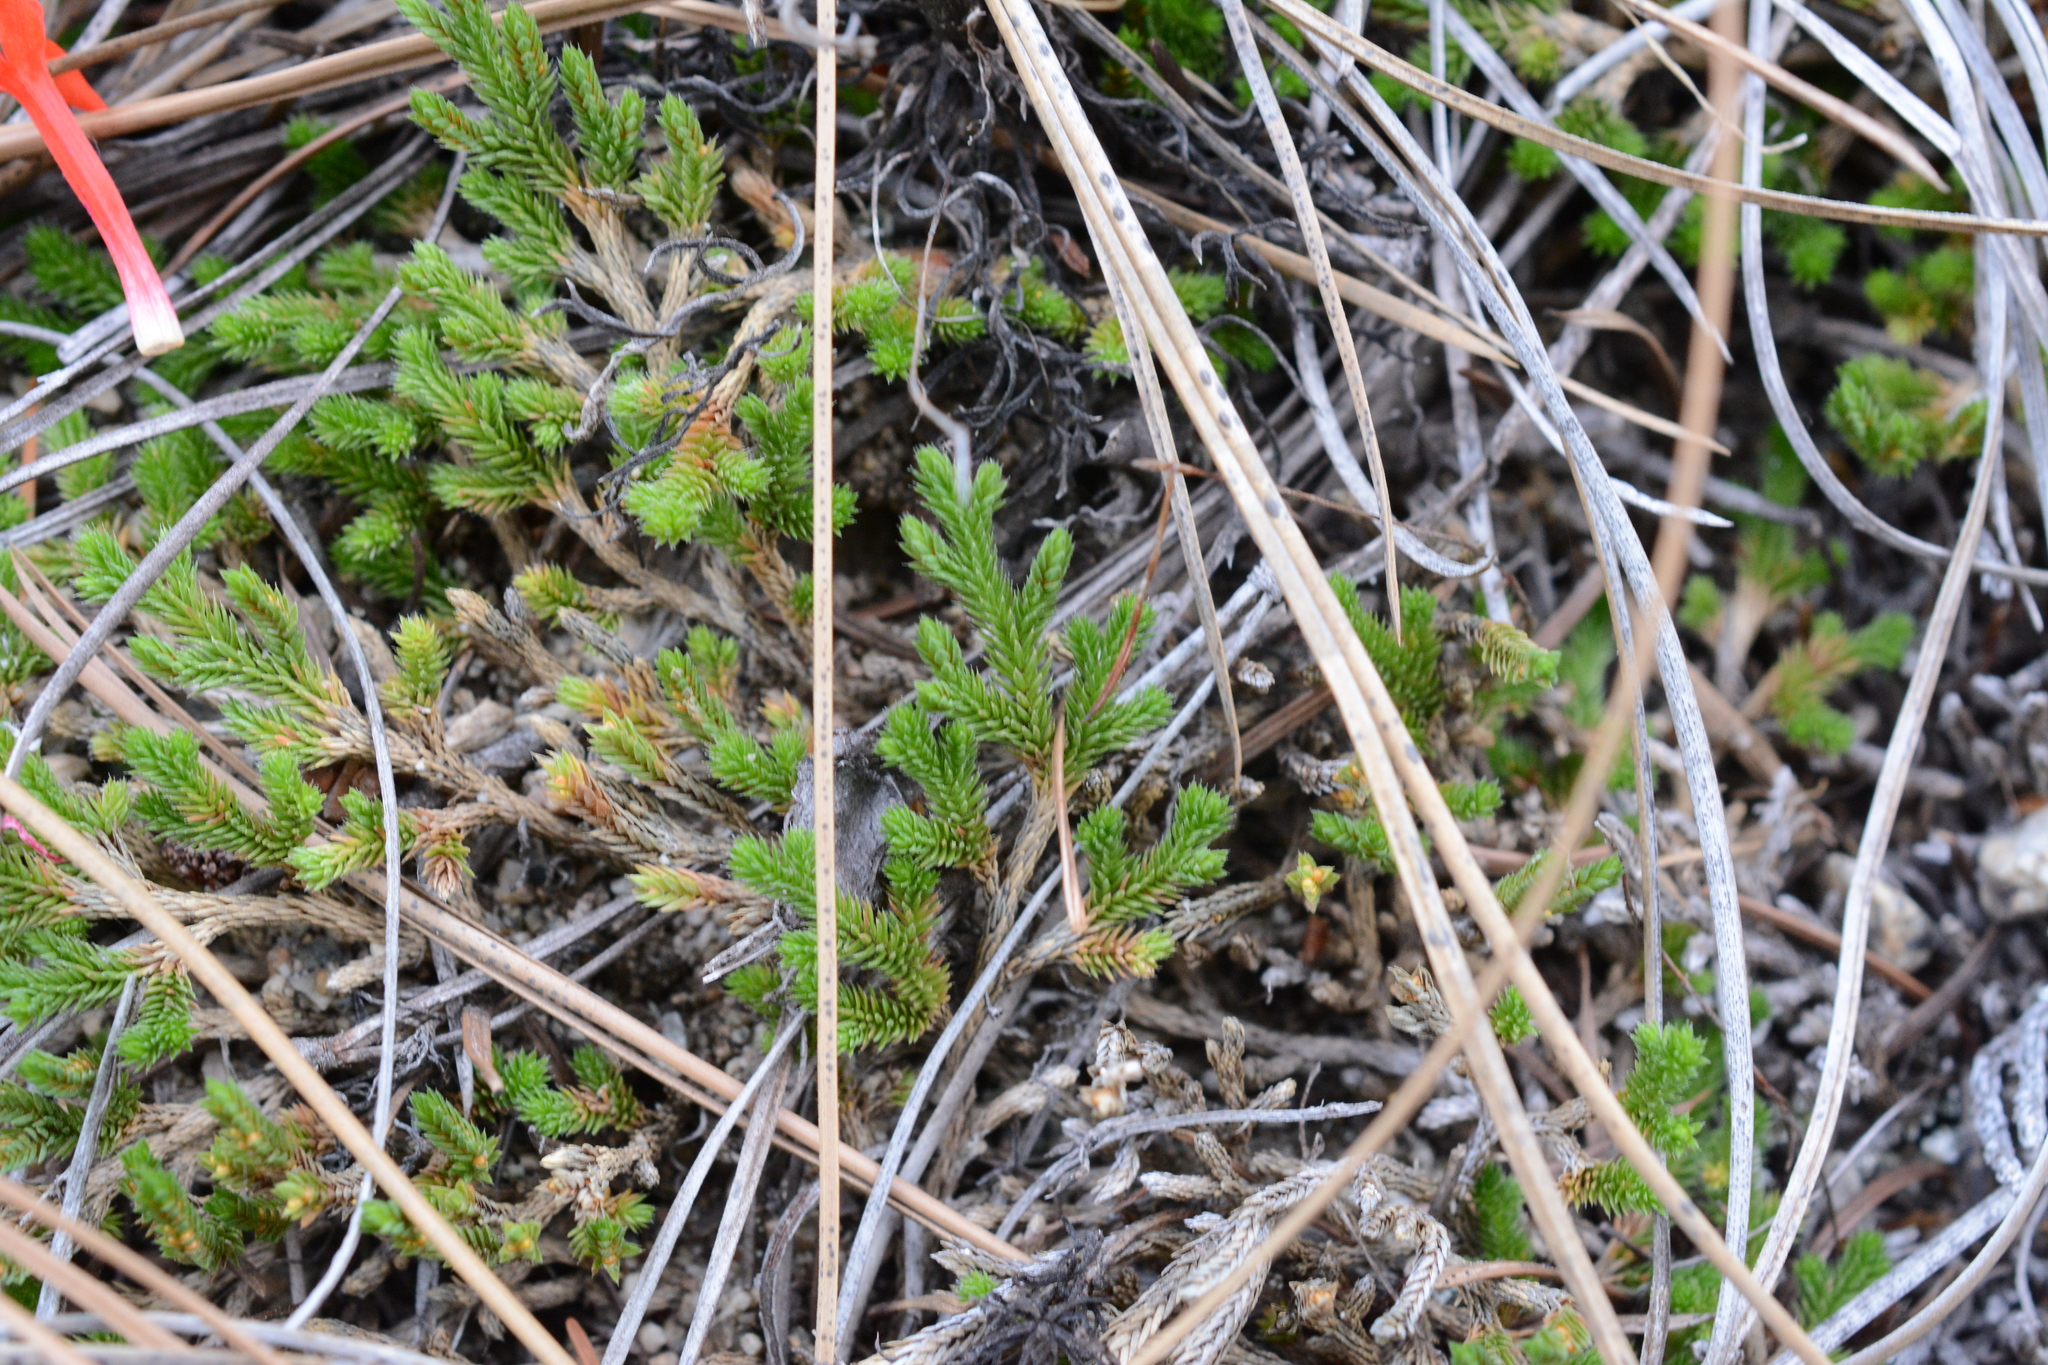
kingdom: Plantae
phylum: Tracheophyta
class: Lycopodiopsida
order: Selaginellales
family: Selaginellaceae
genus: Selaginella
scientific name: Selaginella wallacei
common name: Wallace's selaginella
